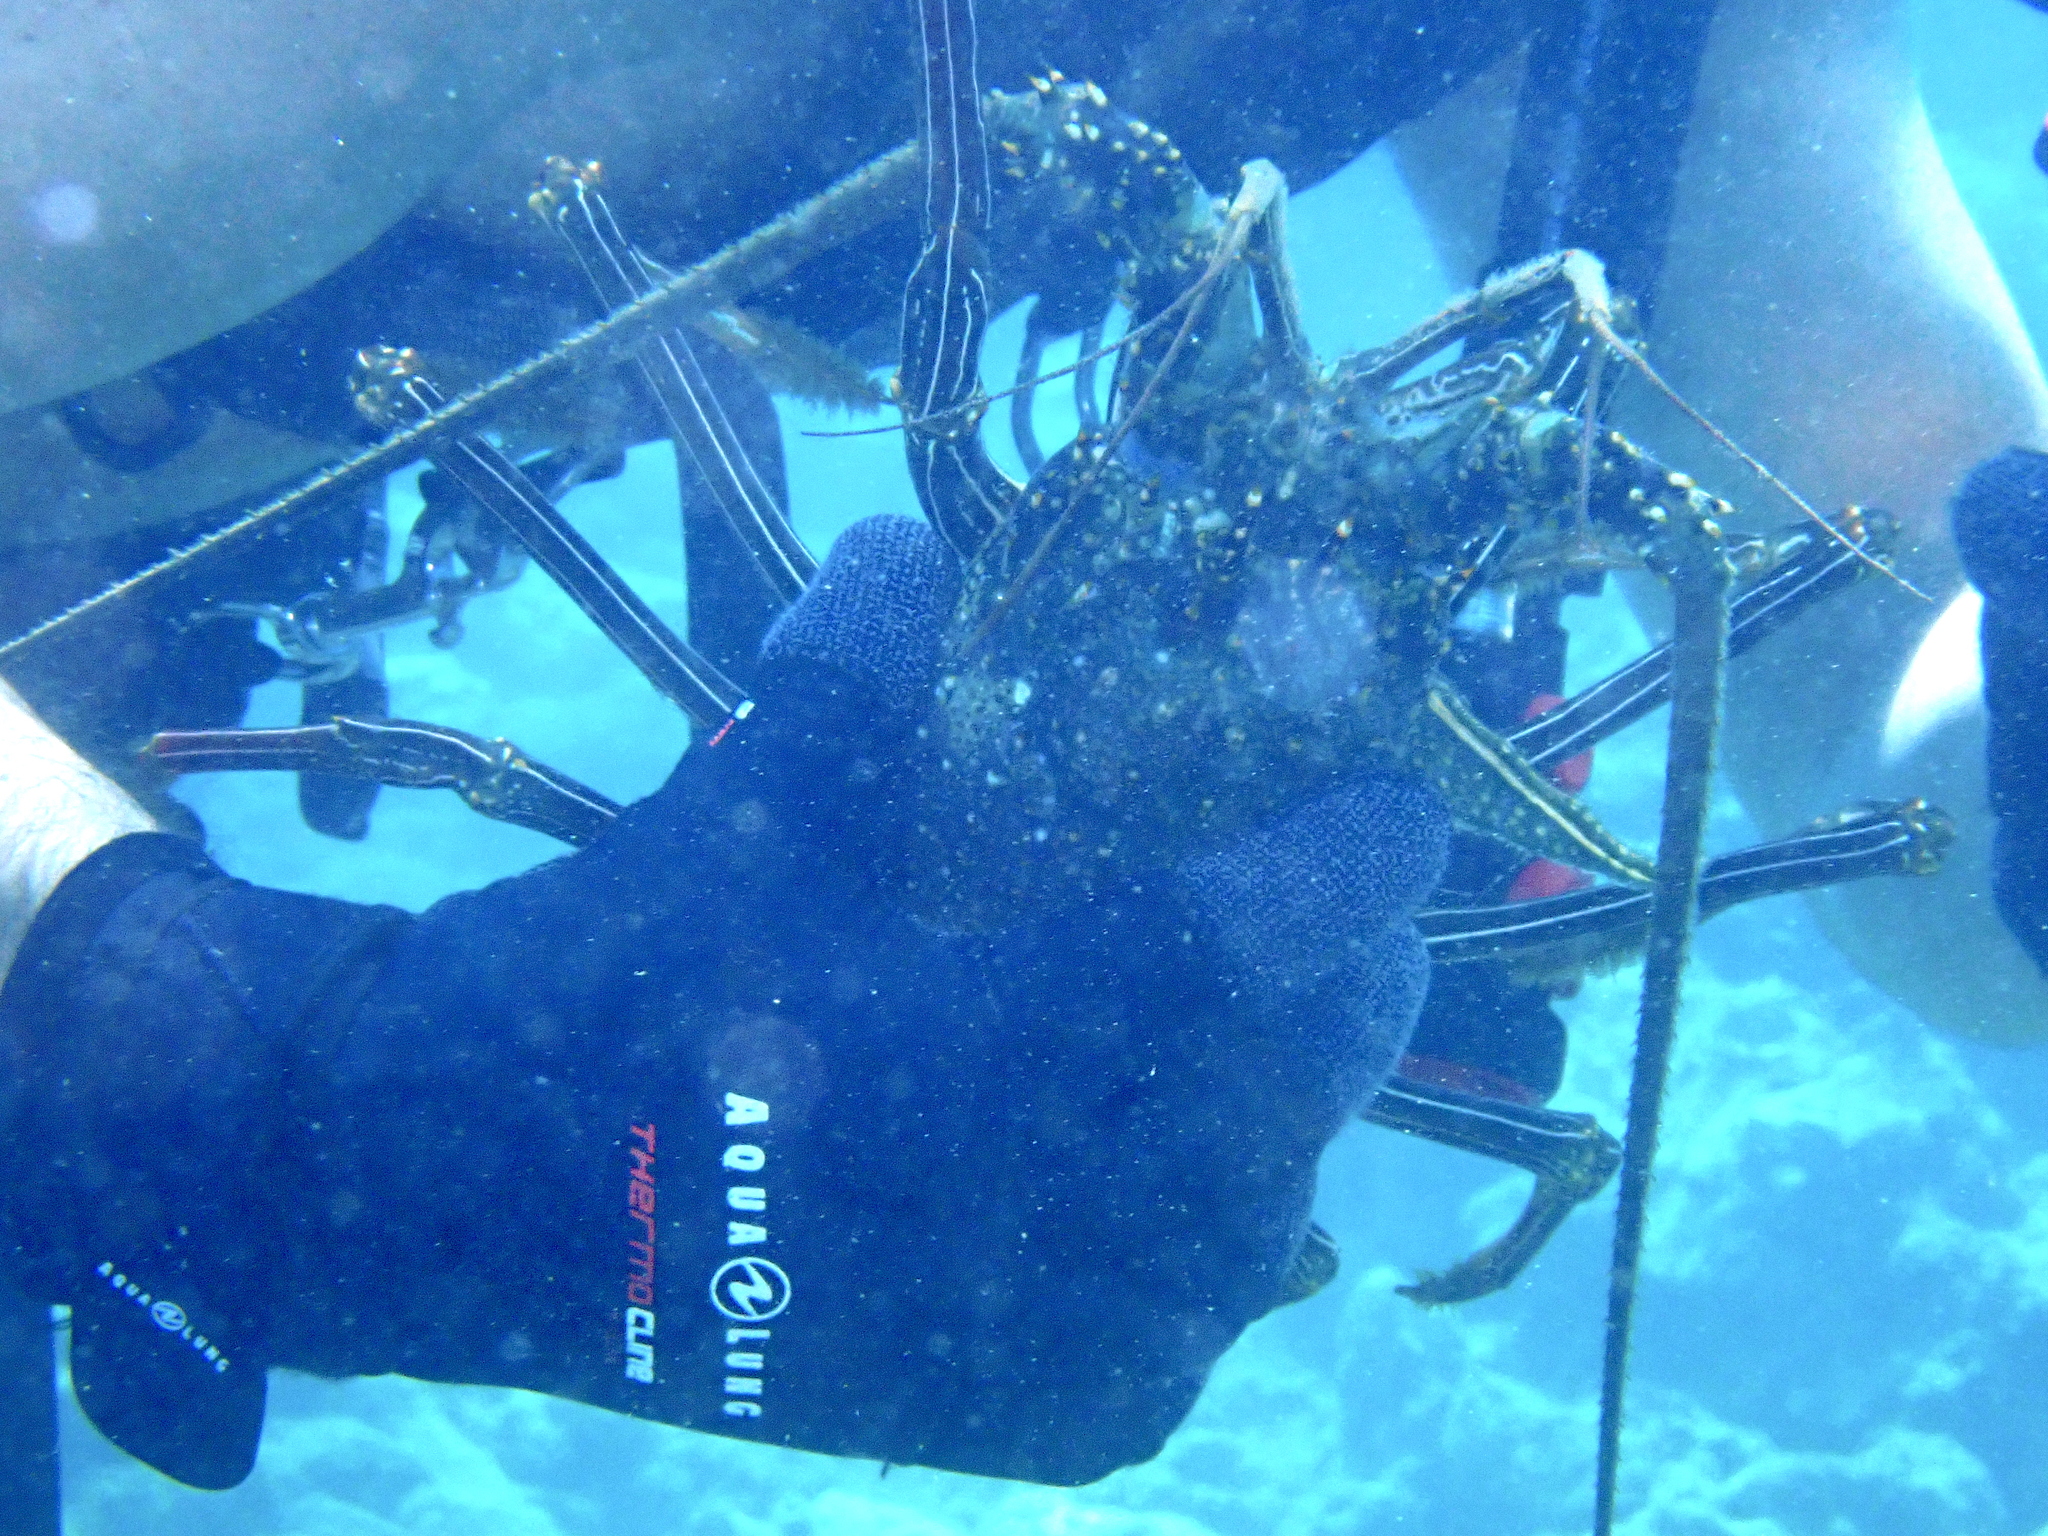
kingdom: Animalia
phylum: Arthropoda
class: Malacostraca
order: Decapoda
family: Palinuridae
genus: Panulirus
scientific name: Panulirus penicillatus
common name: Pronghorn spiny lobster
